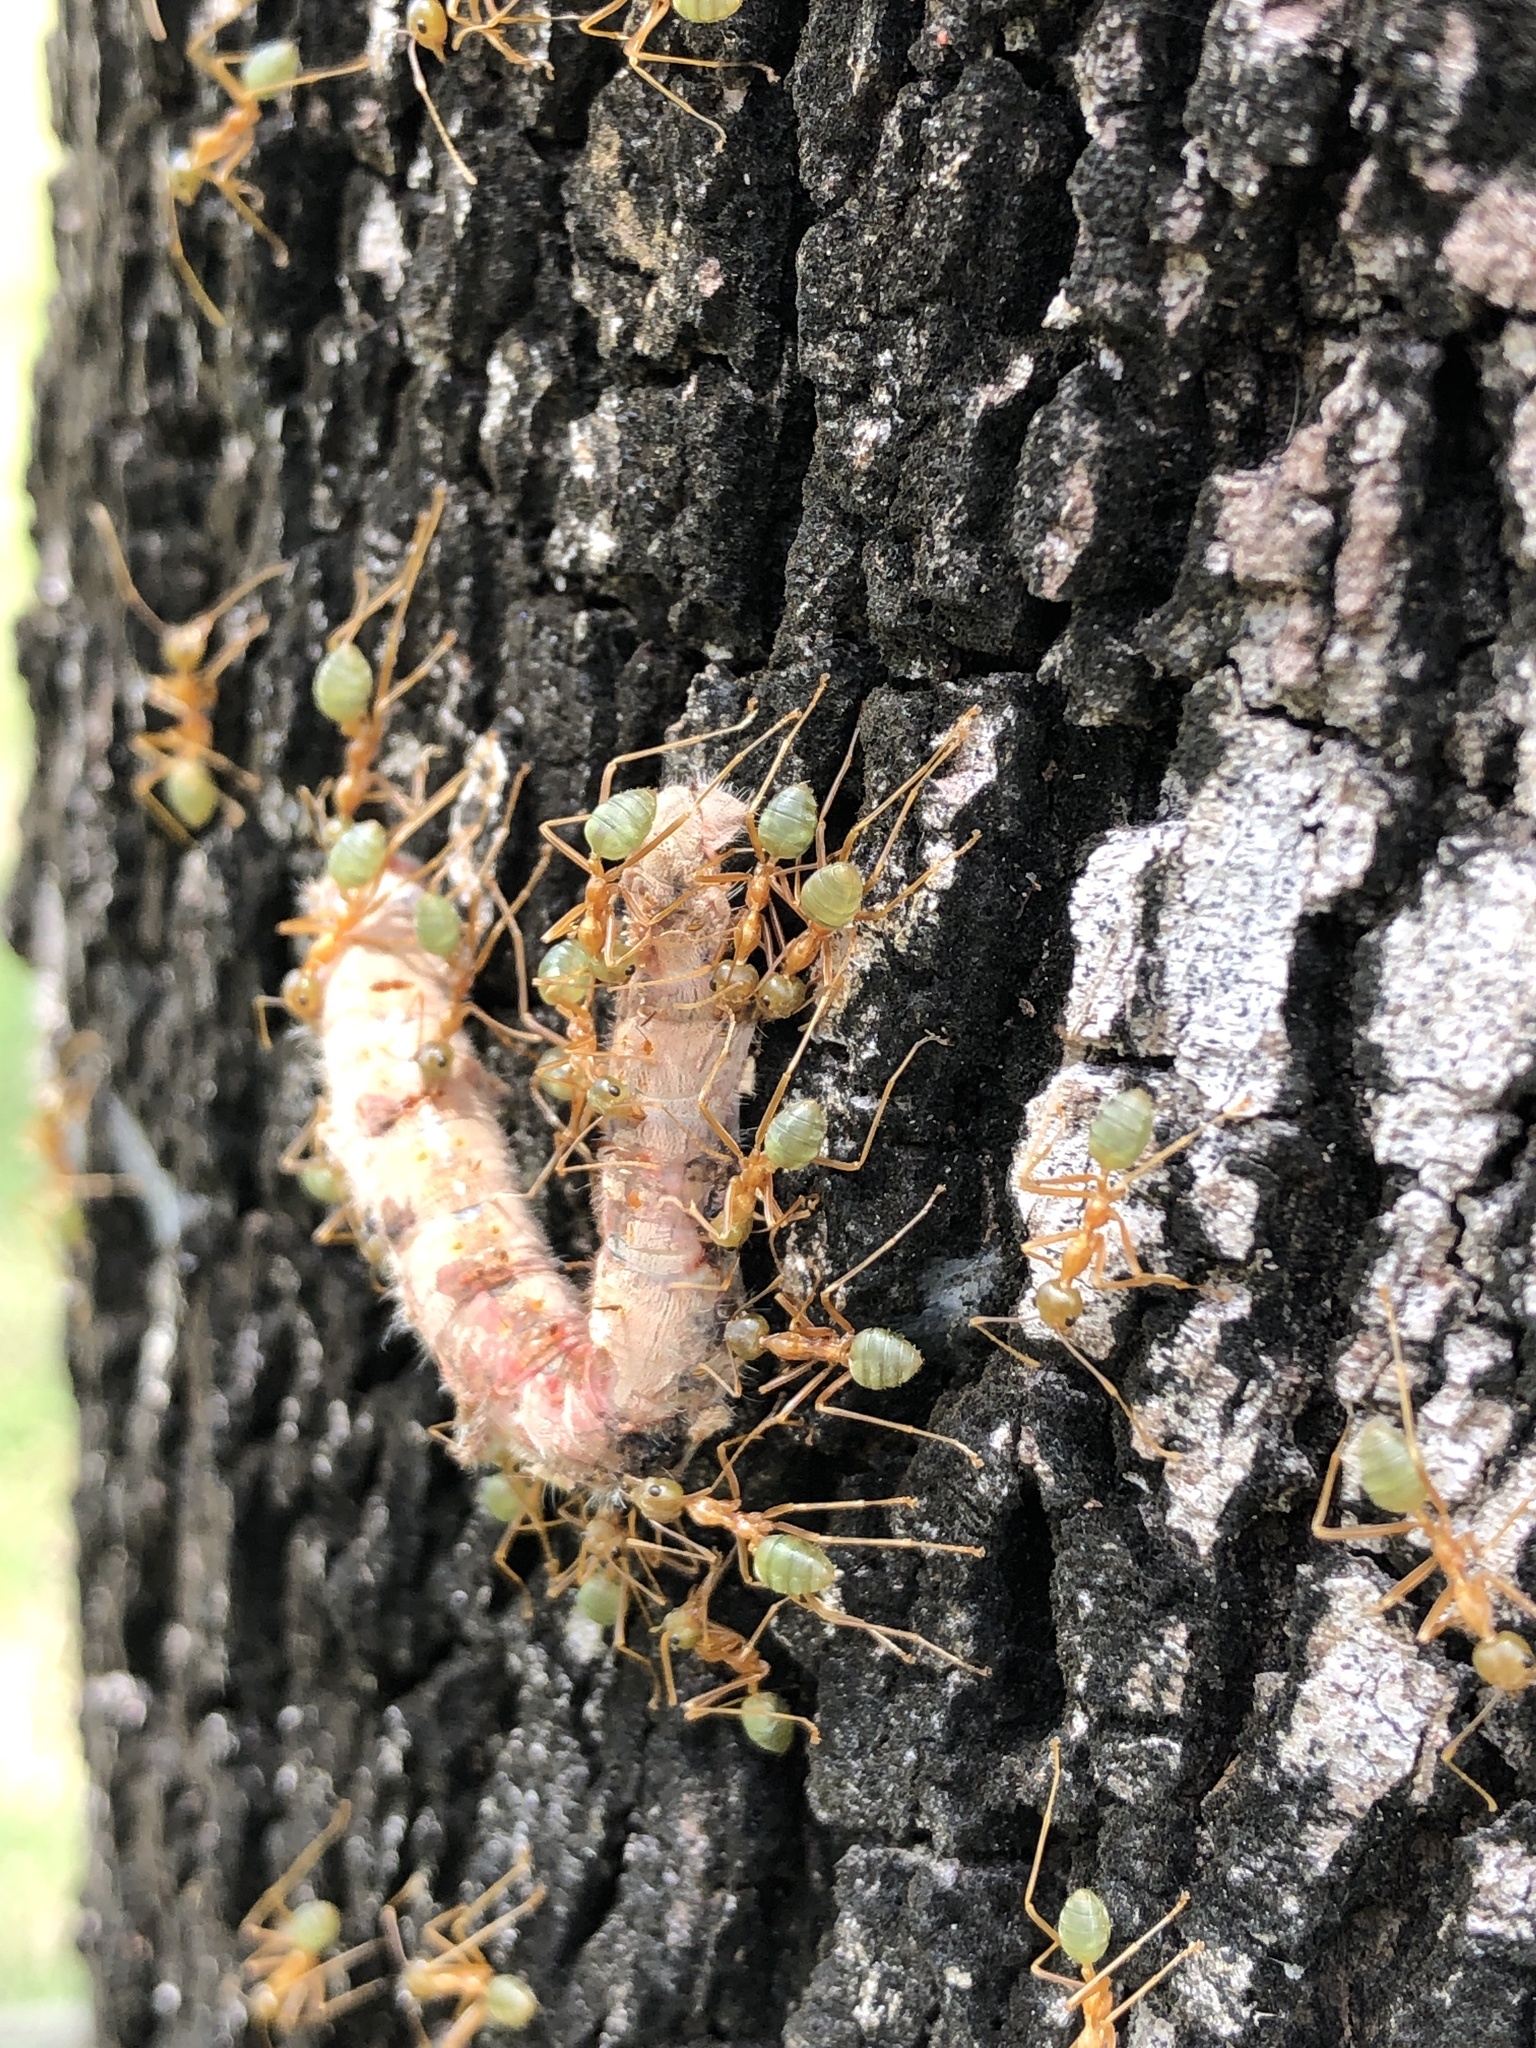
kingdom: Animalia
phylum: Arthropoda
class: Insecta
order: Hymenoptera
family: Formicidae
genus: Oecophylla
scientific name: Oecophylla smaragdina
